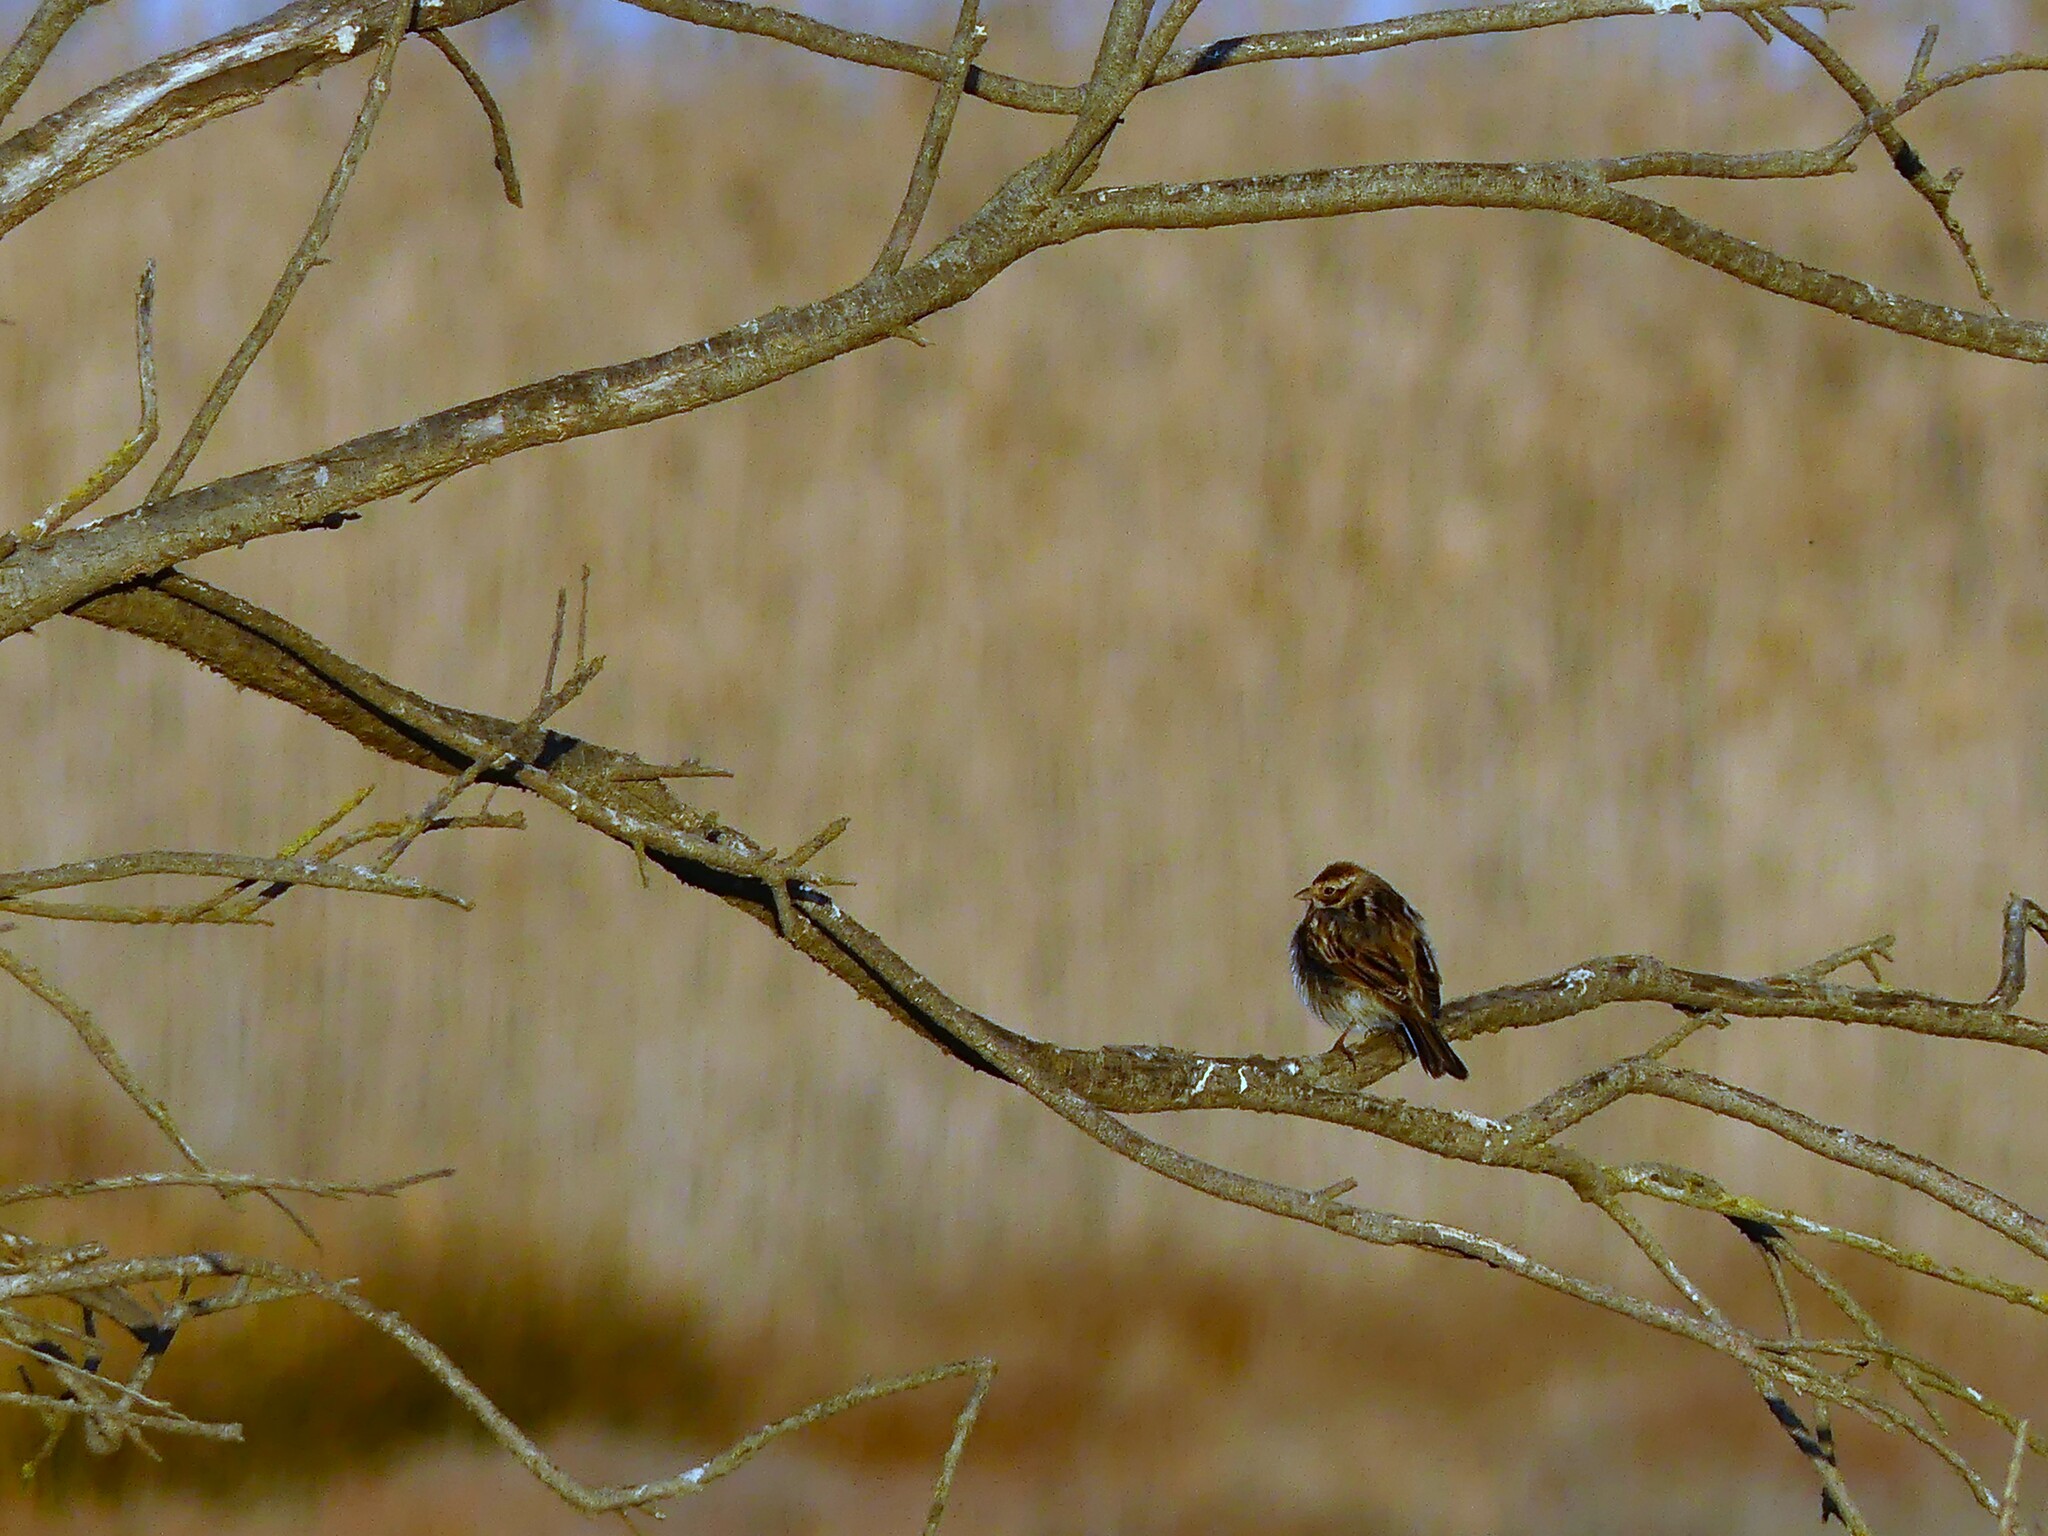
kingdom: Animalia
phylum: Chordata
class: Aves
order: Passeriformes
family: Emberizidae
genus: Emberiza
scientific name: Emberiza schoeniclus
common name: Reed bunting
